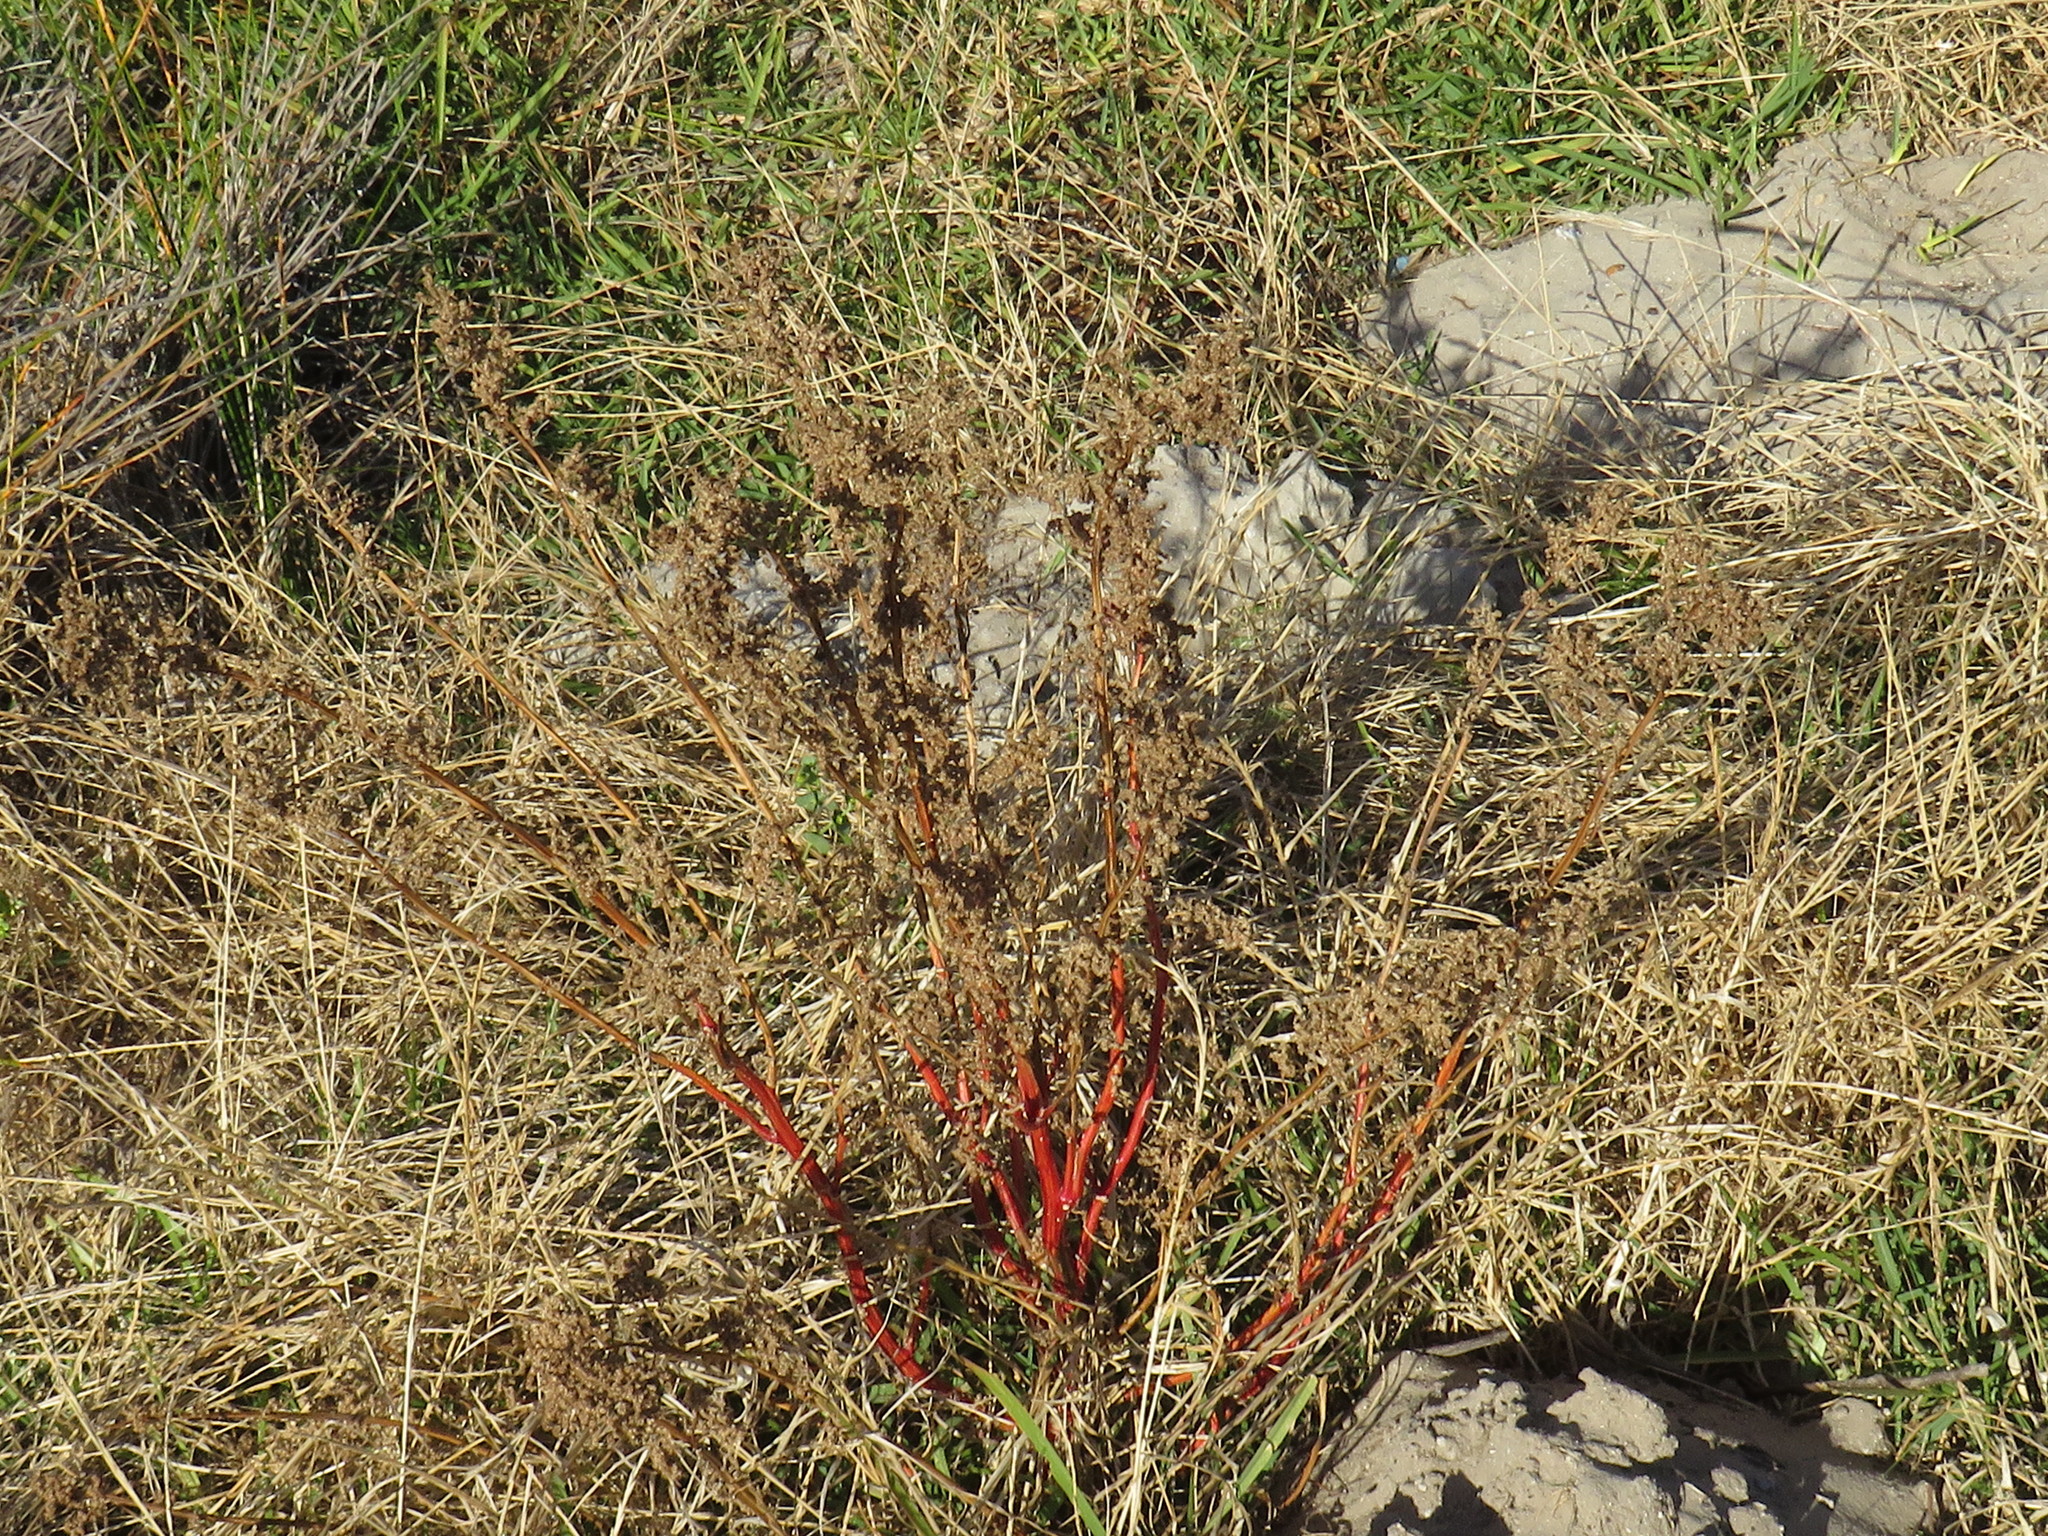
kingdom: Plantae
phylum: Tracheophyta
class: Magnoliopsida
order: Caryophyllales
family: Amaranthaceae
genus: Chenopodiastrum
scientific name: Chenopodiastrum murale
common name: Sowbane
